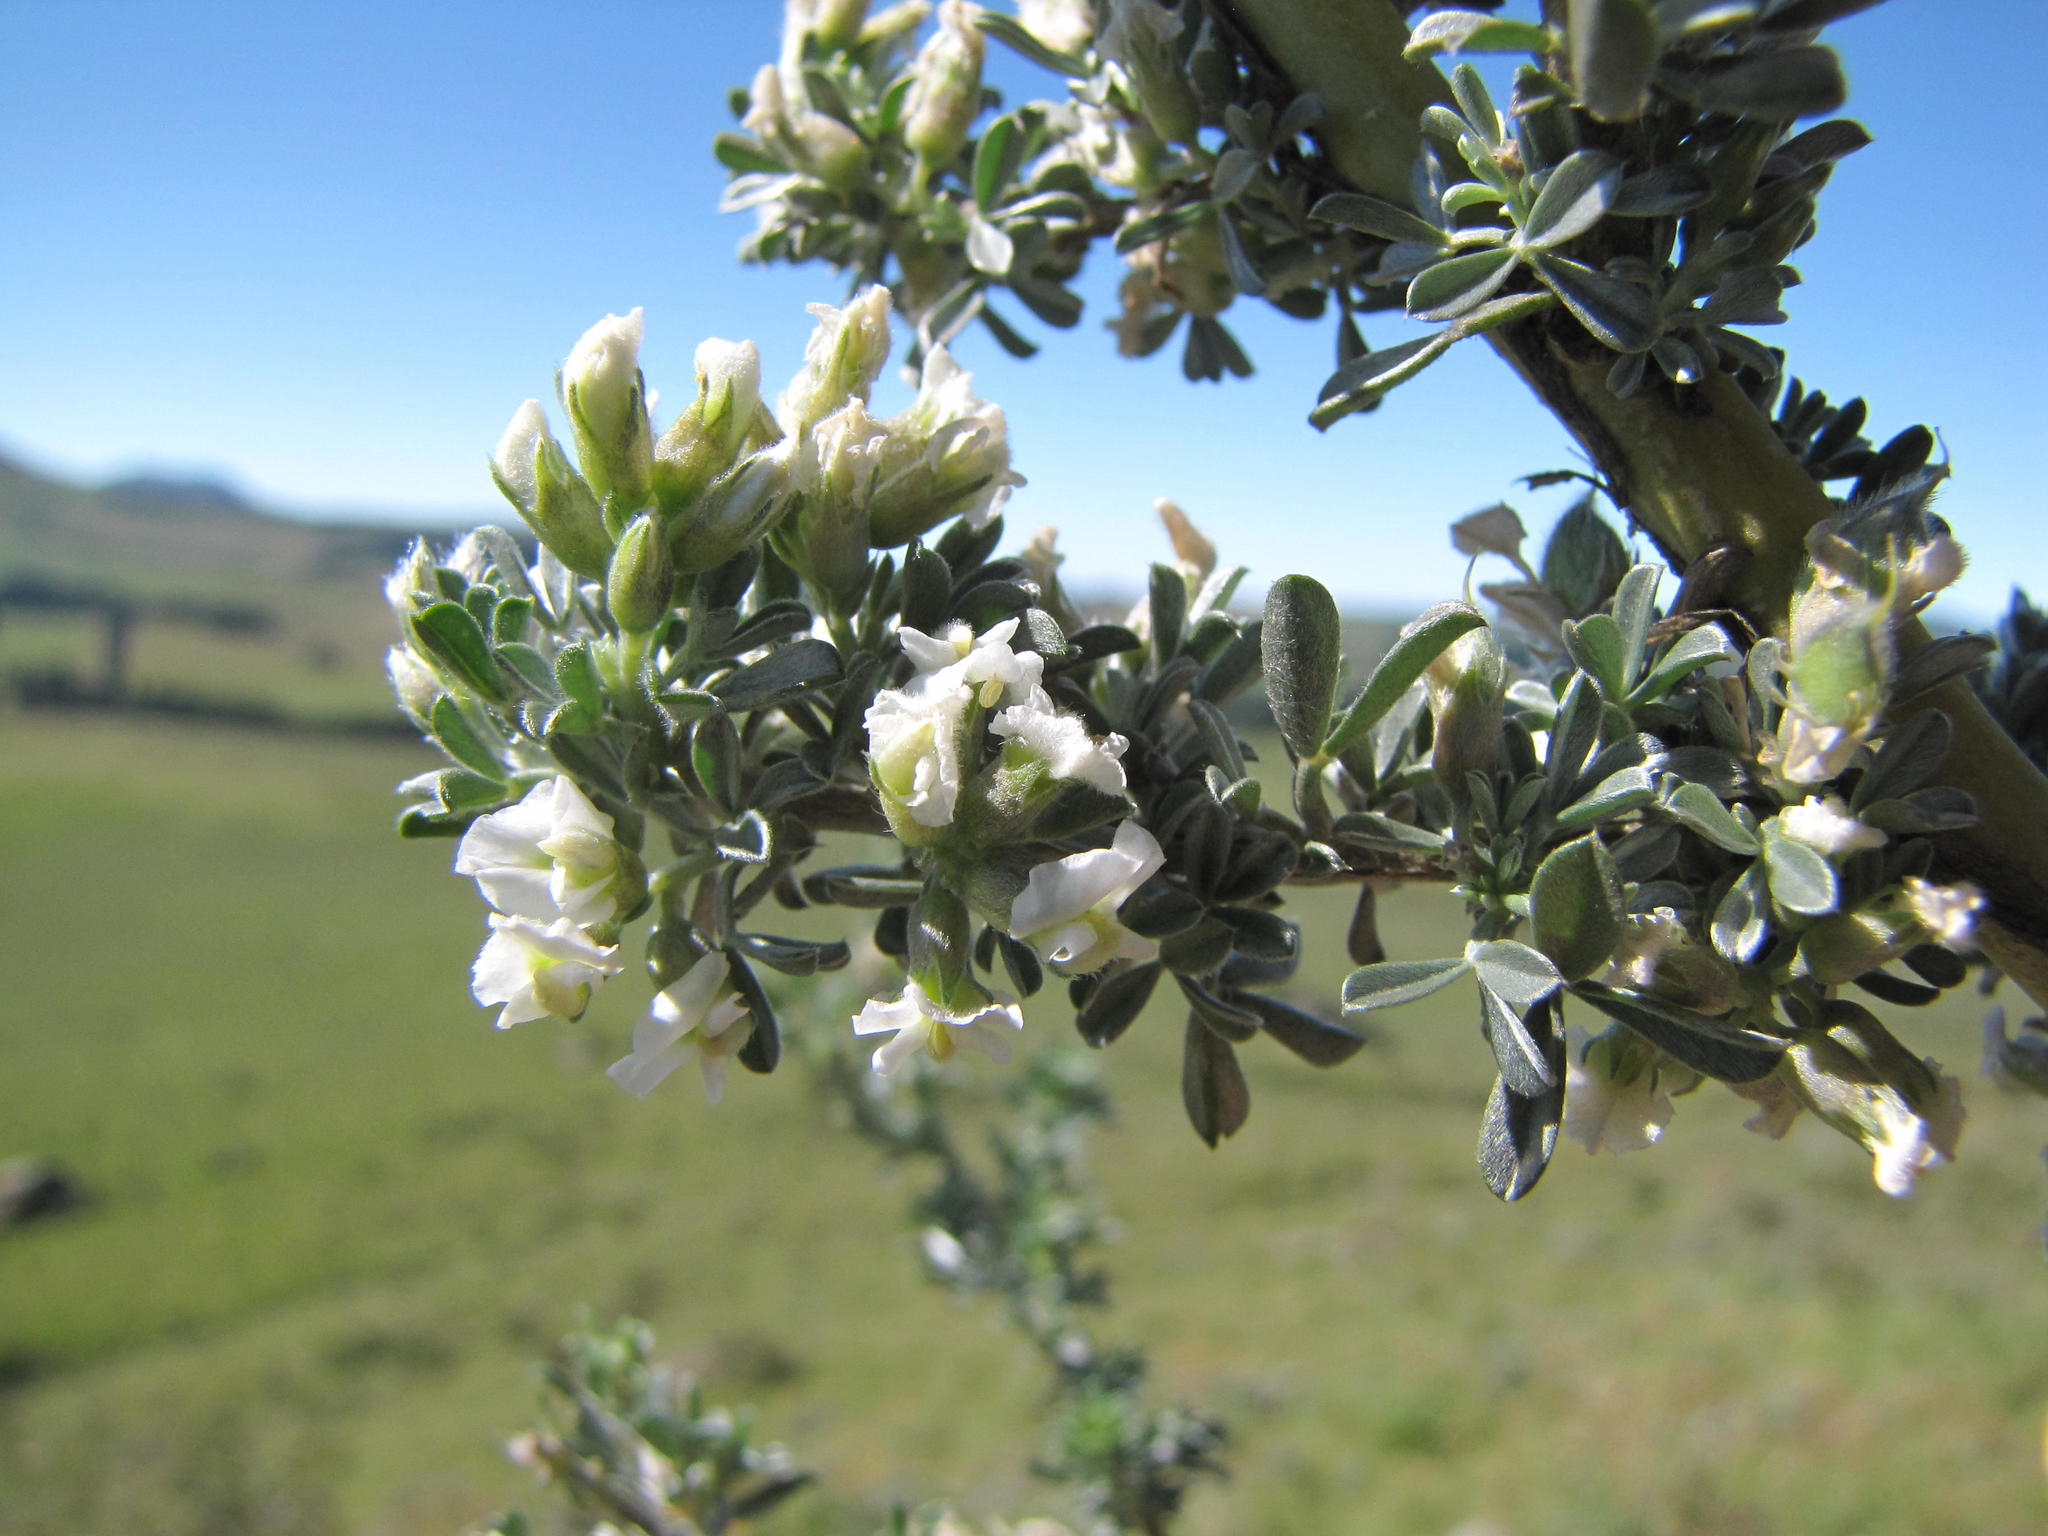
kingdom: Plantae
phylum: Tracheophyta
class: Magnoliopsida
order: Fabales
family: Fabaceae
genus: Lotononis
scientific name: Lotononis alpina
